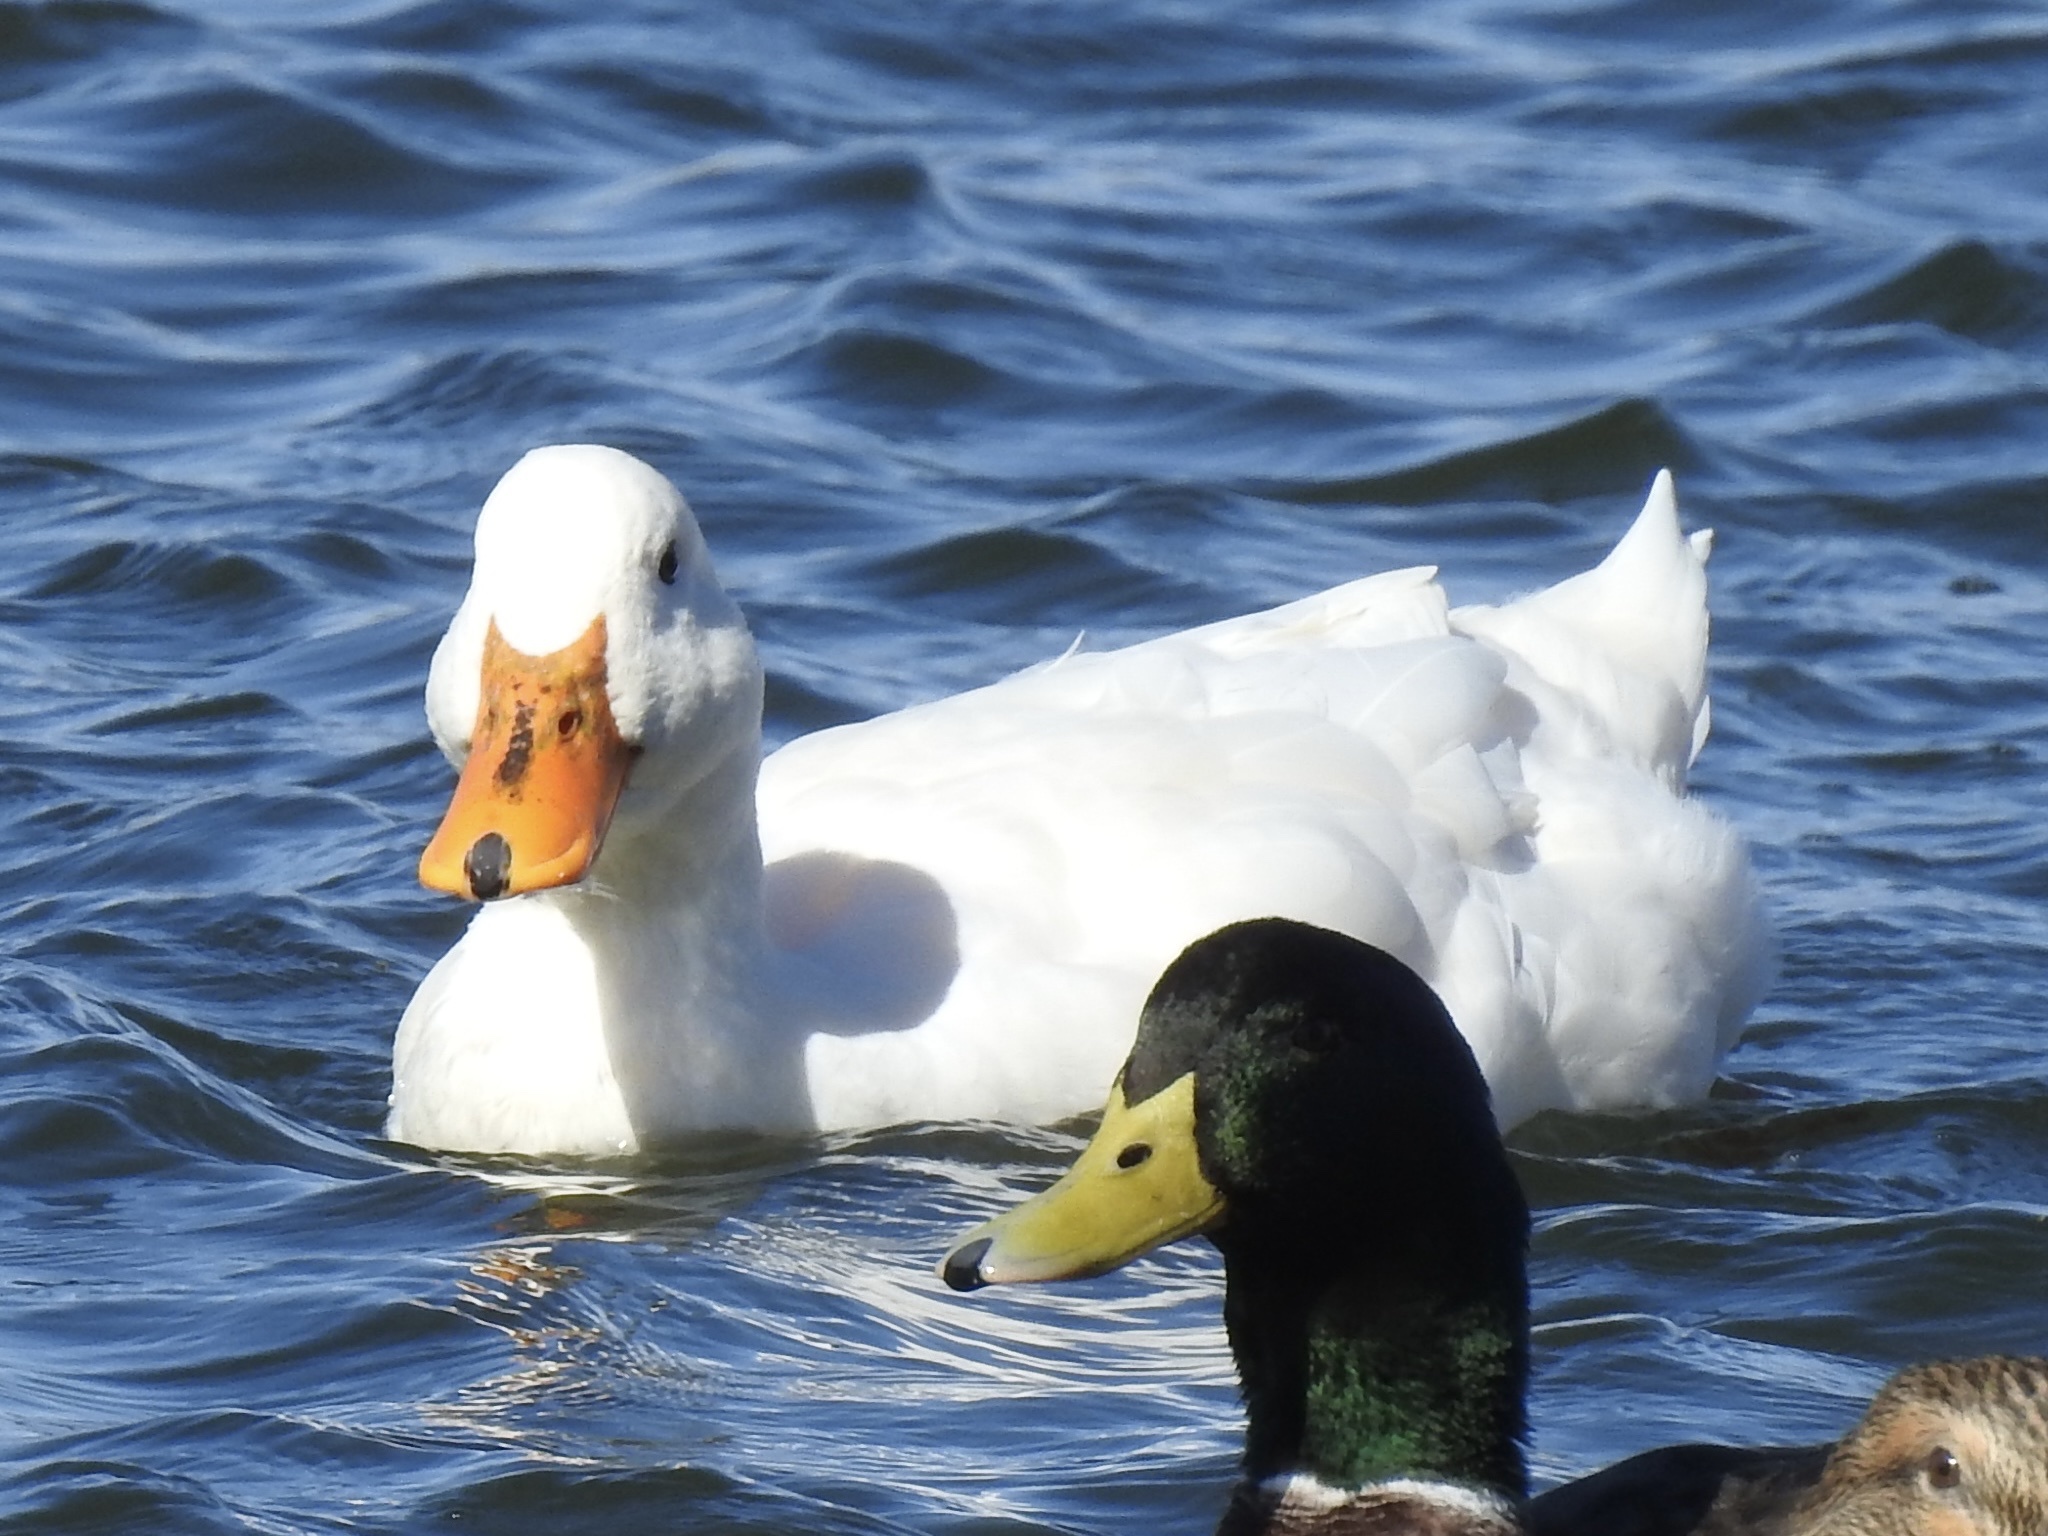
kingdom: Animalia
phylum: Chordata
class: Aves
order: Anseriformes
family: Anatidae
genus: Anas
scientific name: Anas platyrhynchos
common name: Mallard
